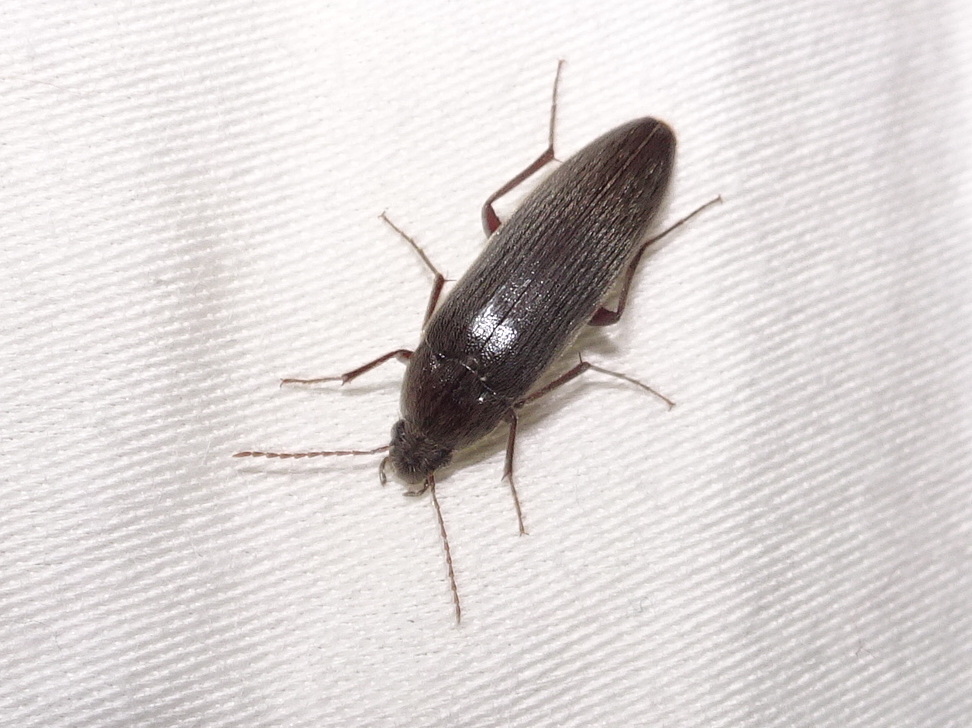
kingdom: Animalia
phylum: Arthropoda
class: Insecta
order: Coleoptera
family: Synchroidae
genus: Synchroa
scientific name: Synchroa punctata
